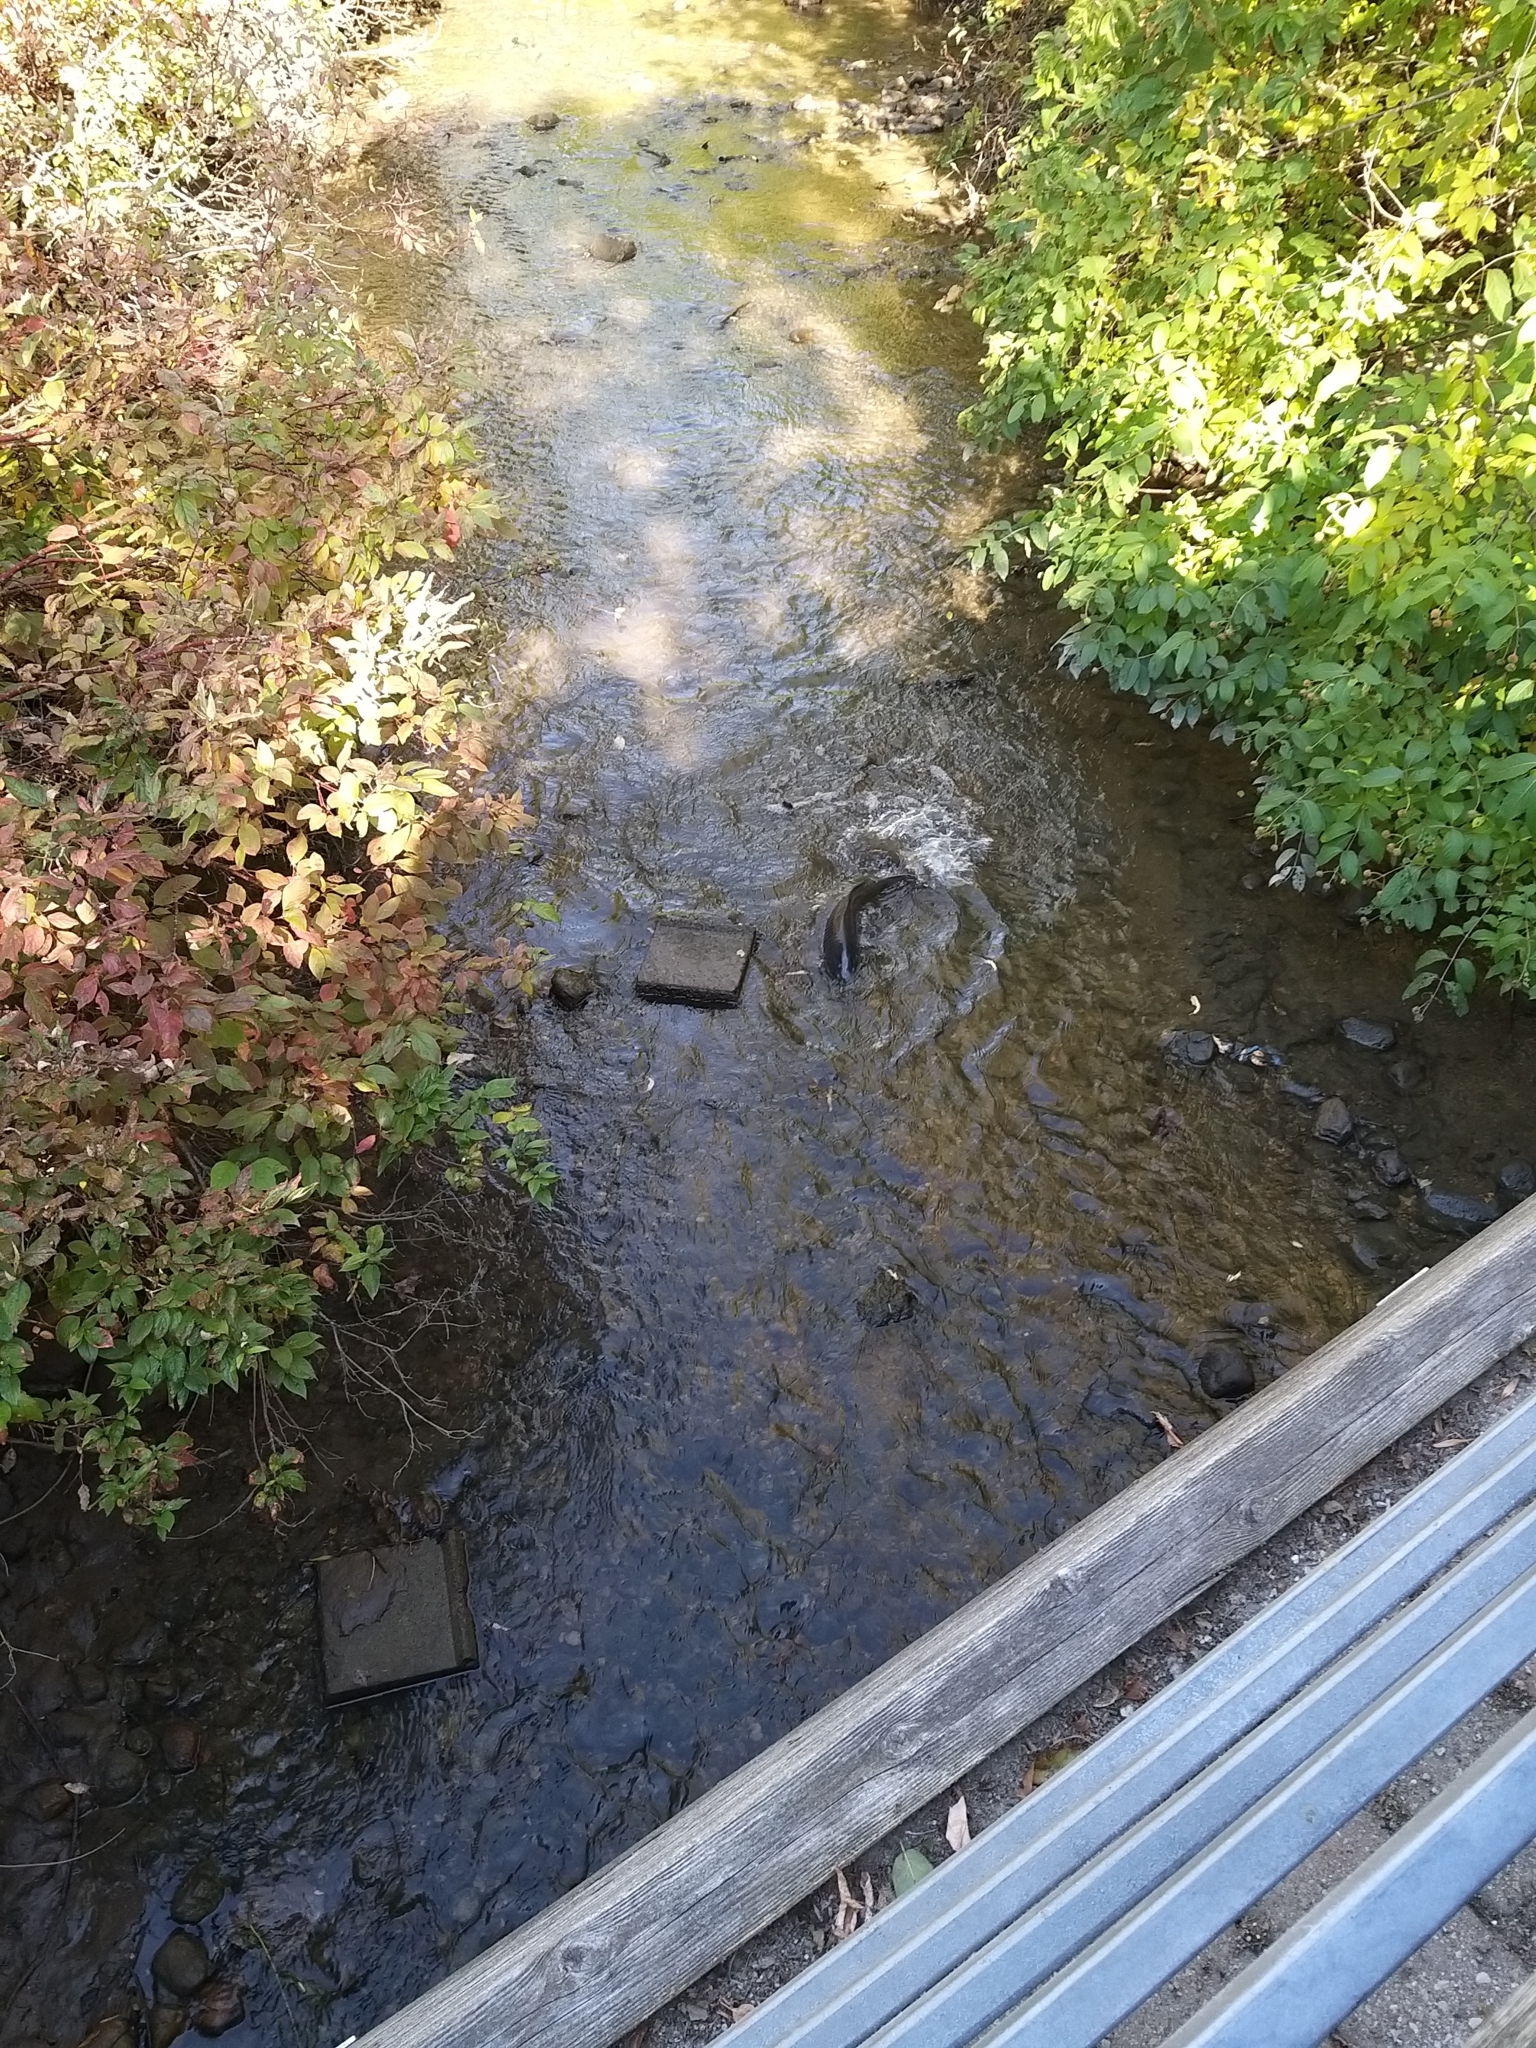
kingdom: Animalia
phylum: Chordata
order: Cypriniformes
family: Cyprinidae
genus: Cyprinus
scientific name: Cyprinus carpio
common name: Common carp
